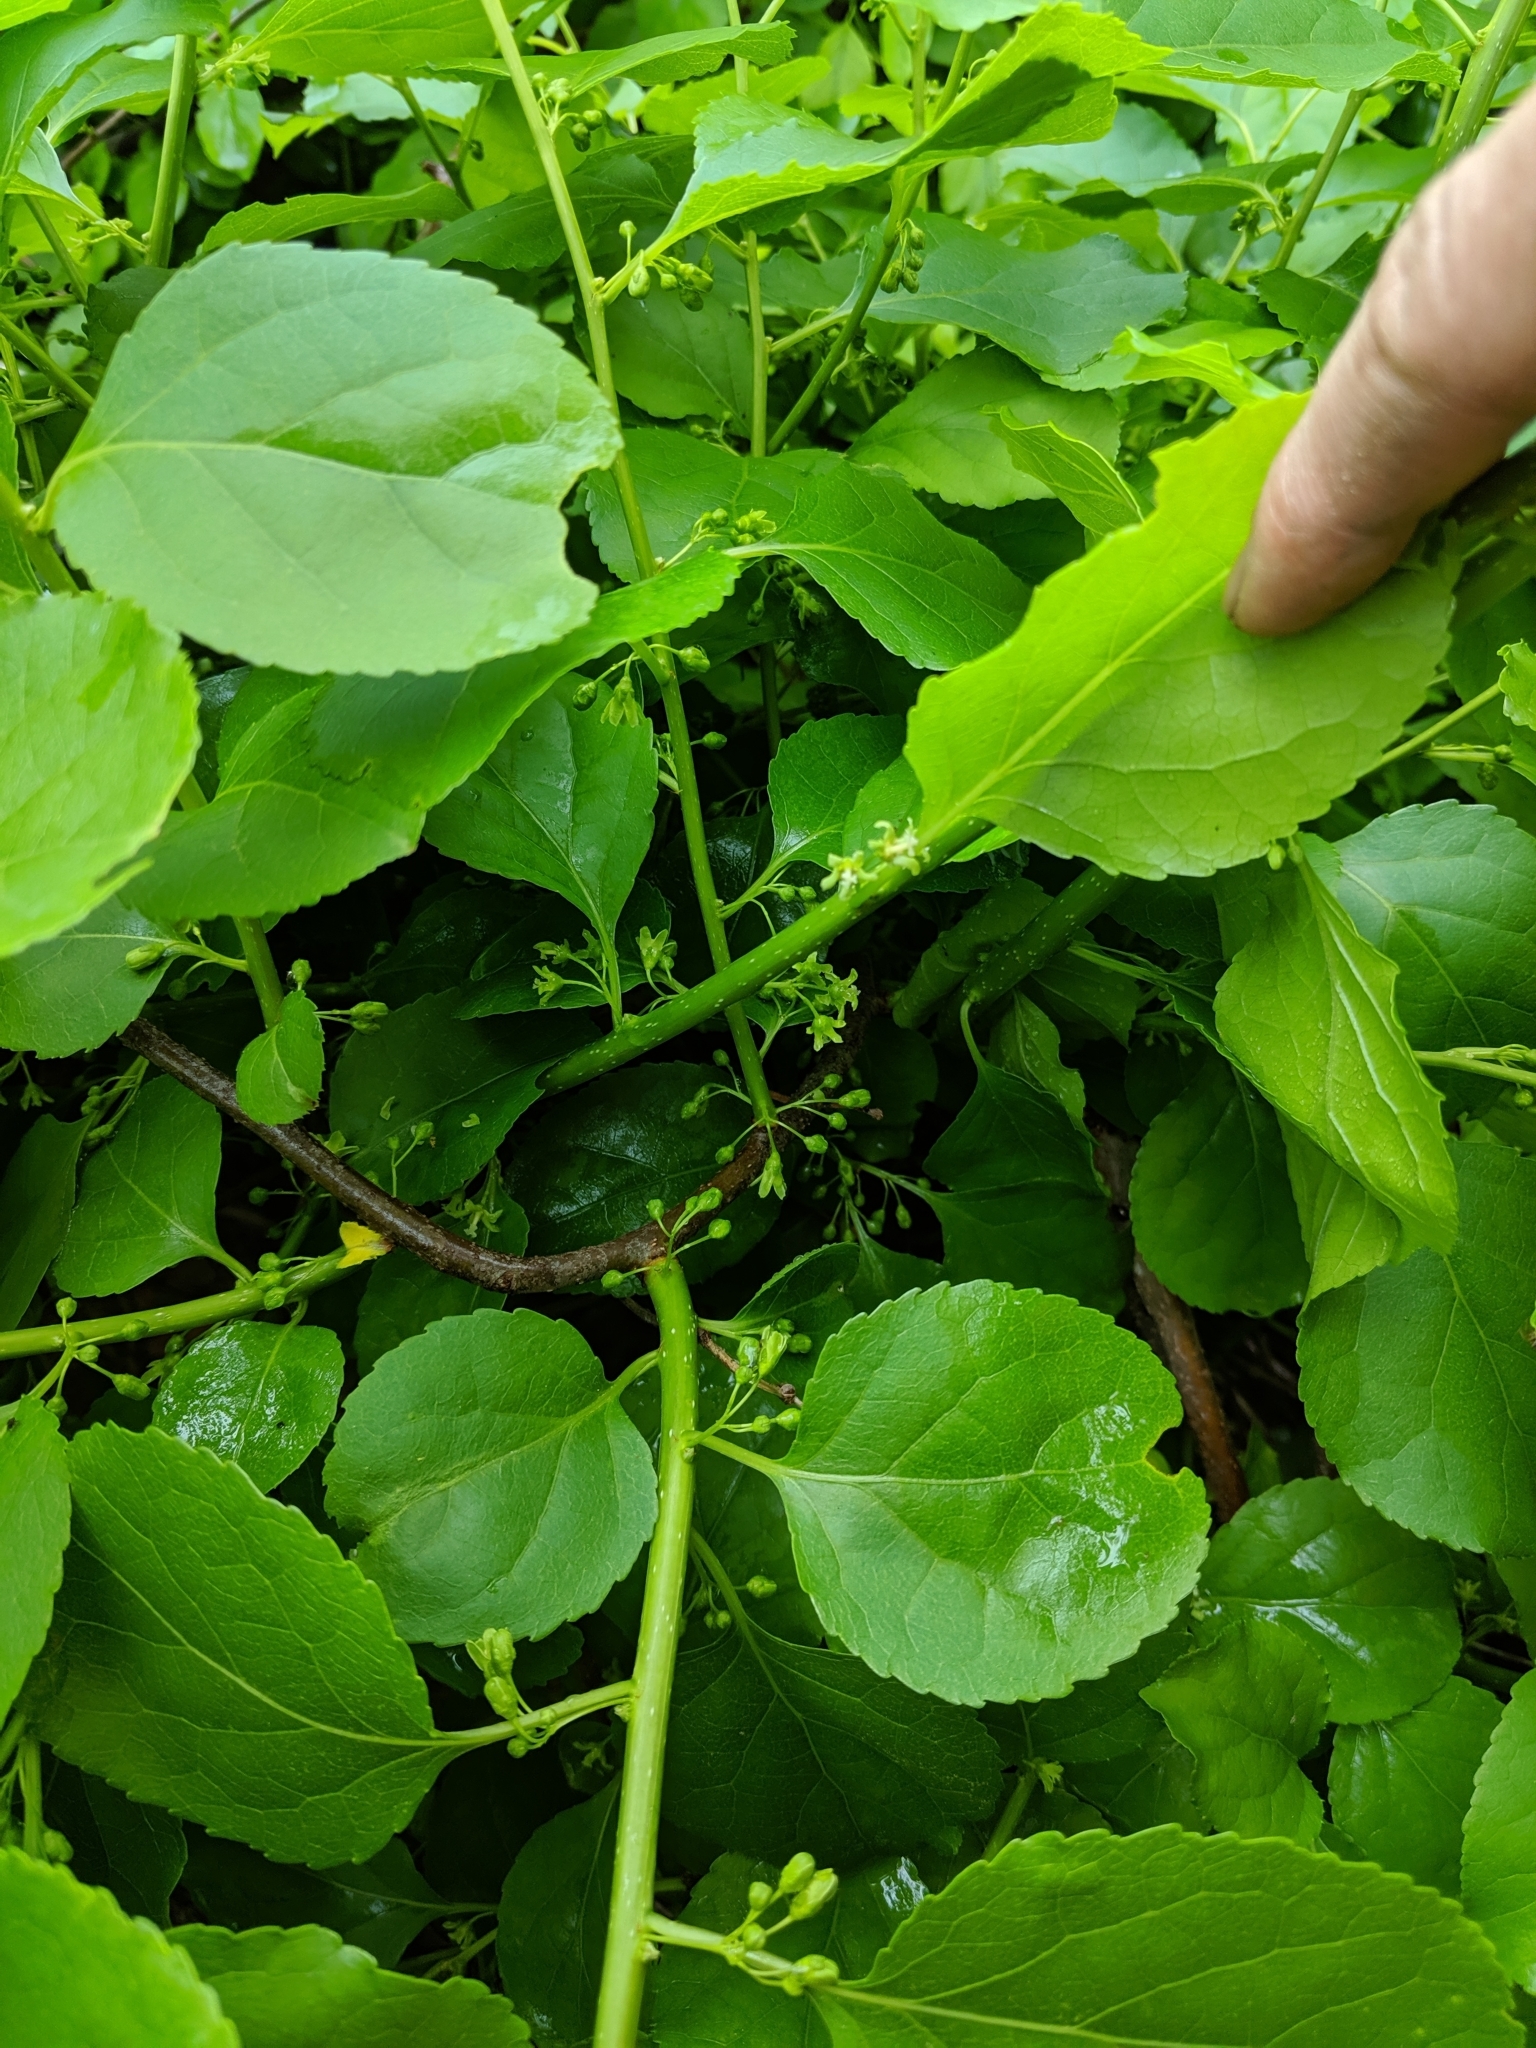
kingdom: Plantae
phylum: Tracheophyta
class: Magnoliopsida
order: Celastrales
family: Celastraceae
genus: Celastrus
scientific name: Celastrus orbiculatus
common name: Oriental bittersweet
